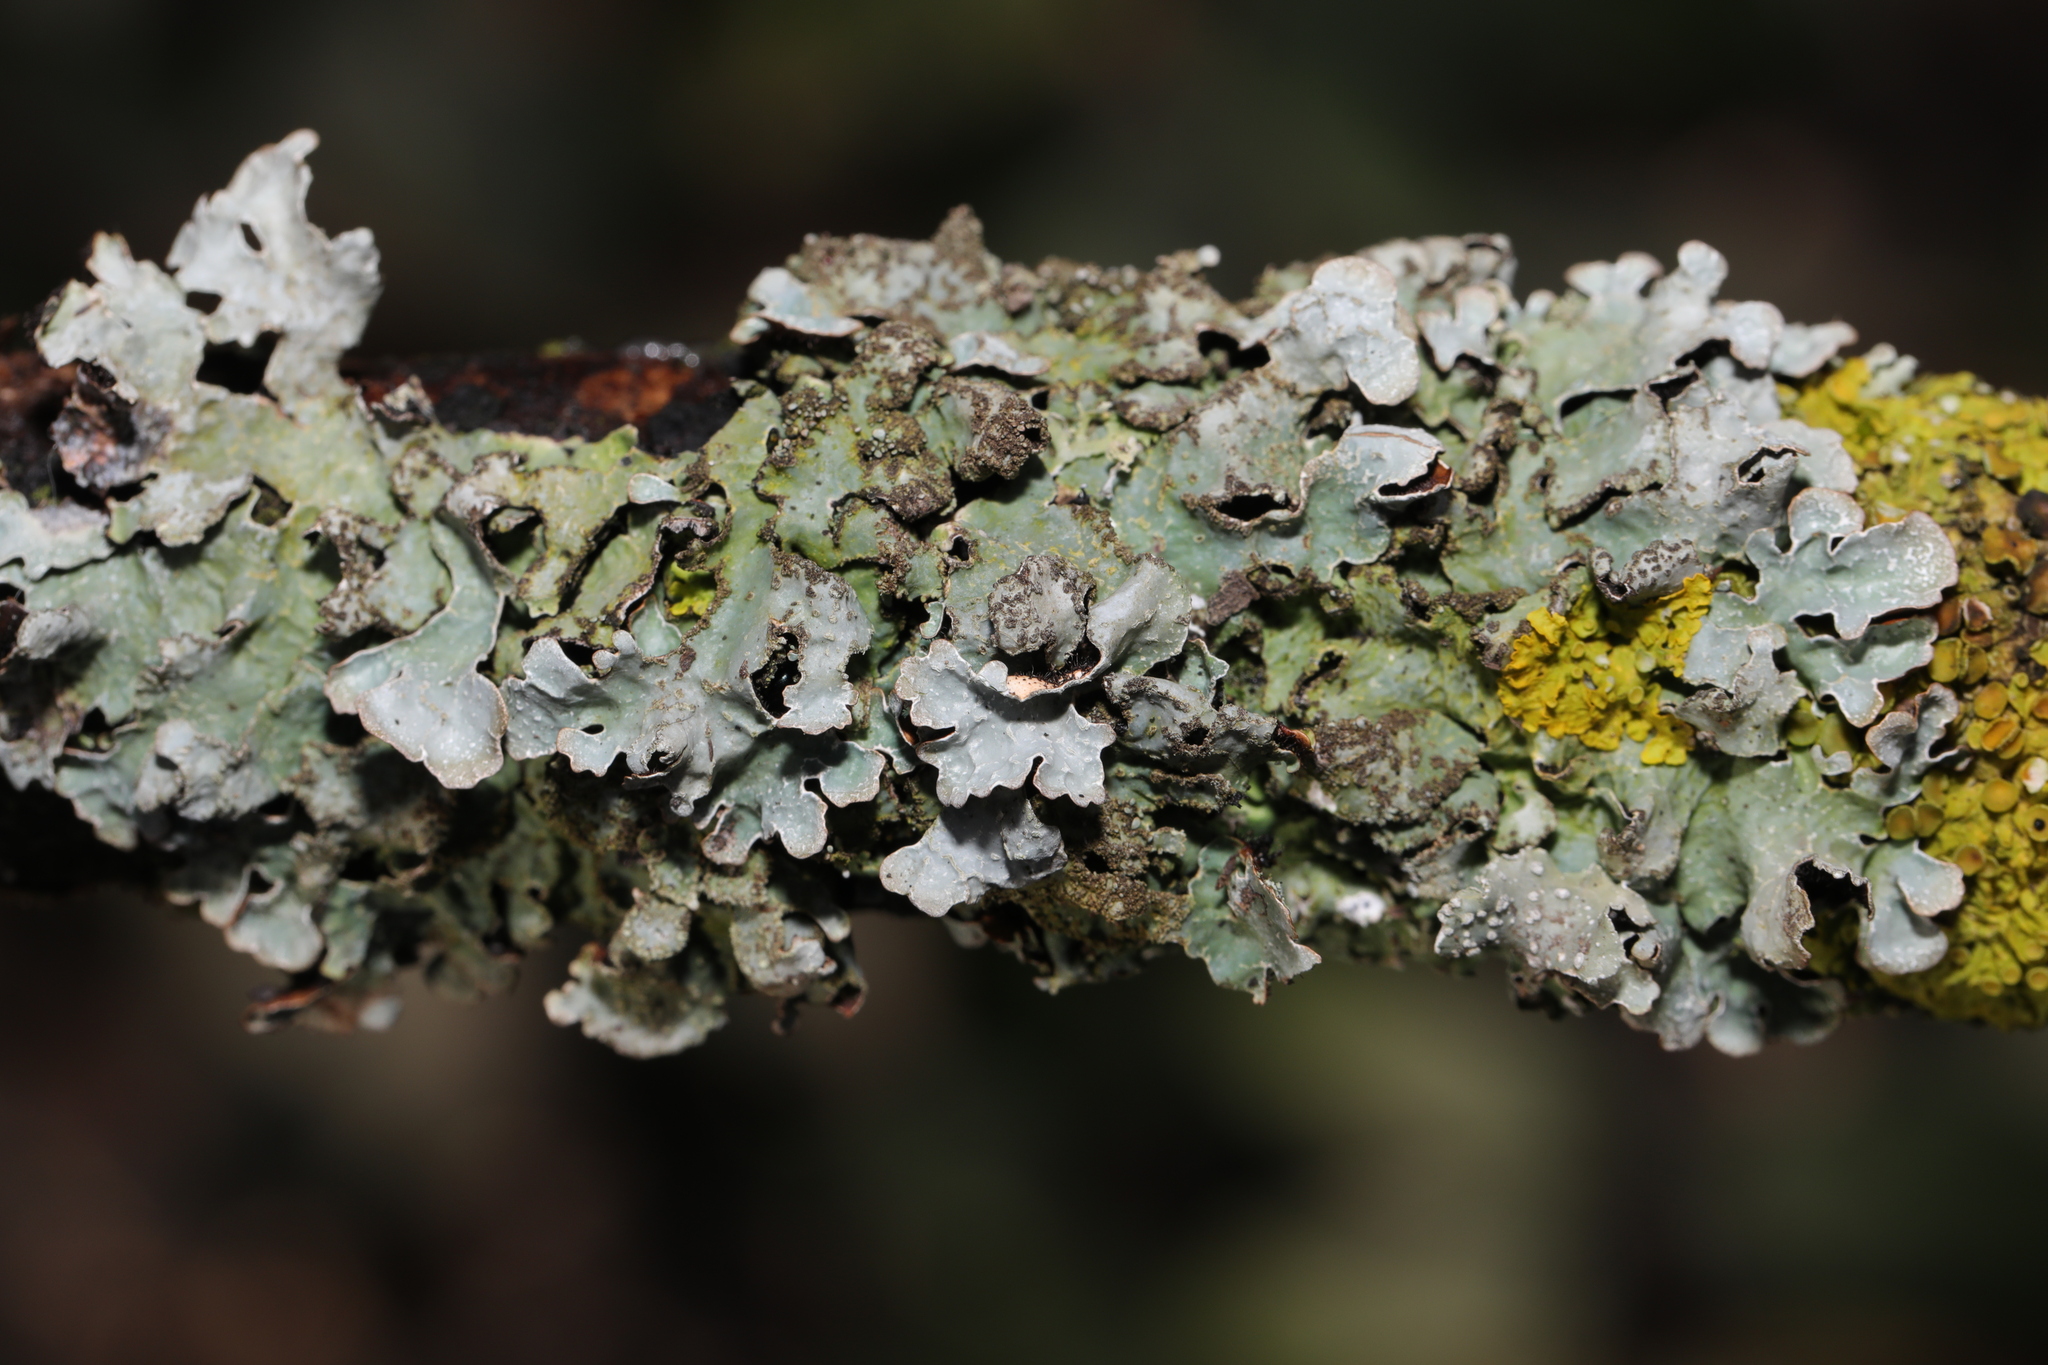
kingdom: Fungi
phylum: Ascomycota
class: Lecanoromycetes
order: Lecanorales
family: Parmeliaceae
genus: Parmelia
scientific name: Parmelia sulcata
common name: Netted shield lichen
